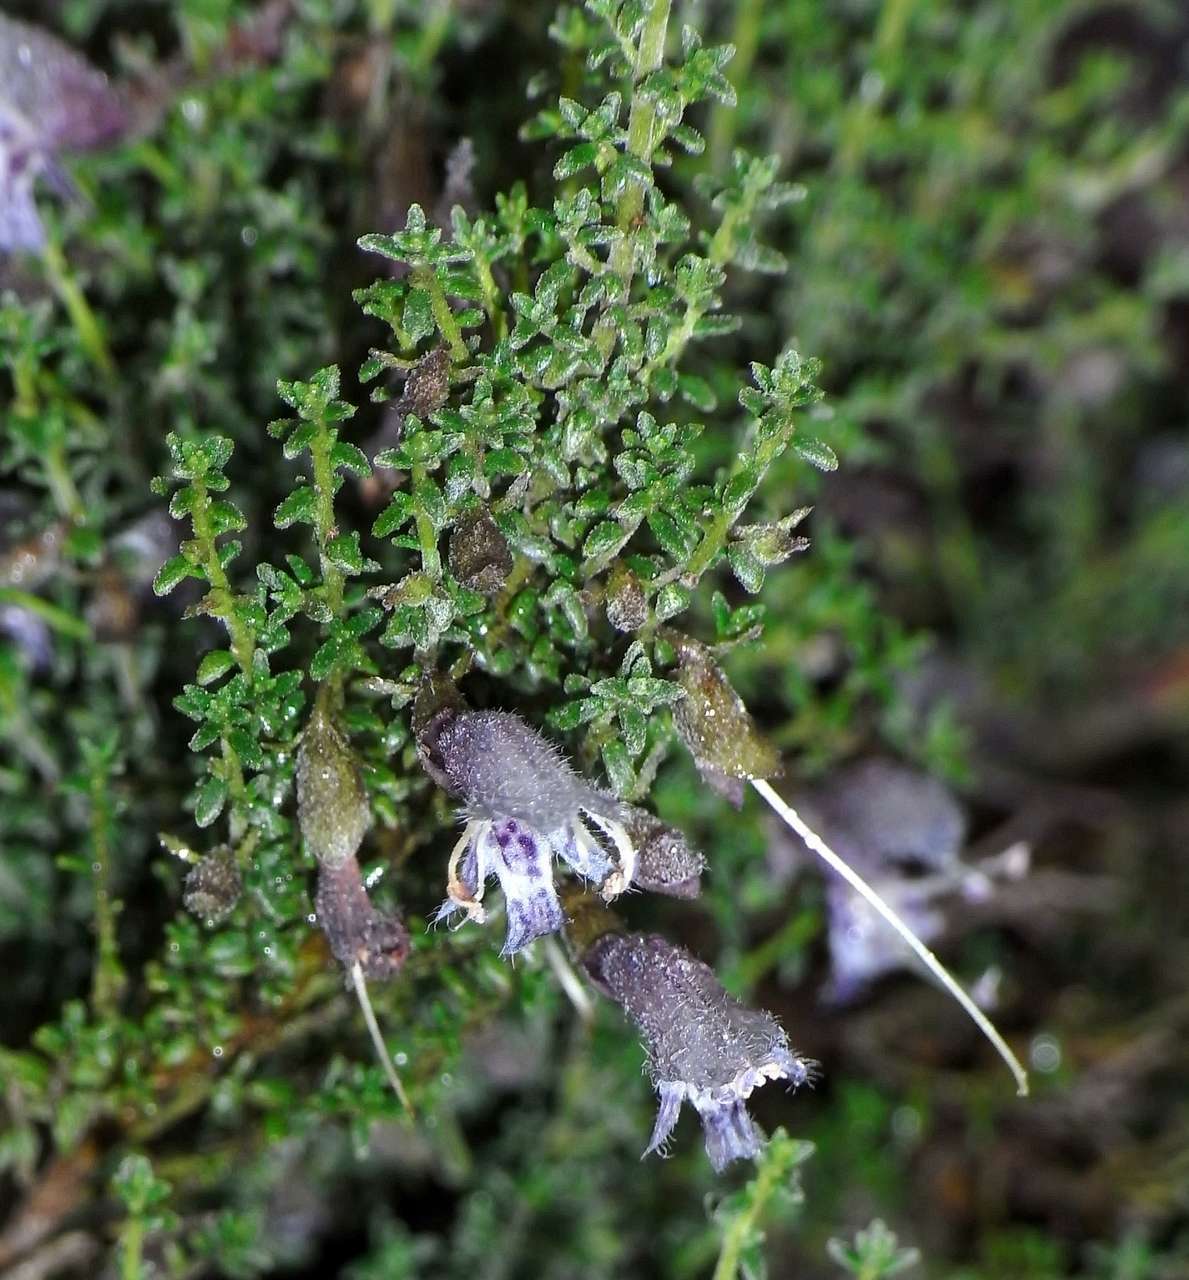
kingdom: Plantae
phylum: Tracheophyta
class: Magnoliopsida
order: Lamiales
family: Lamiaceae
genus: Prostanthera
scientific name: Prostanthera microphylla
